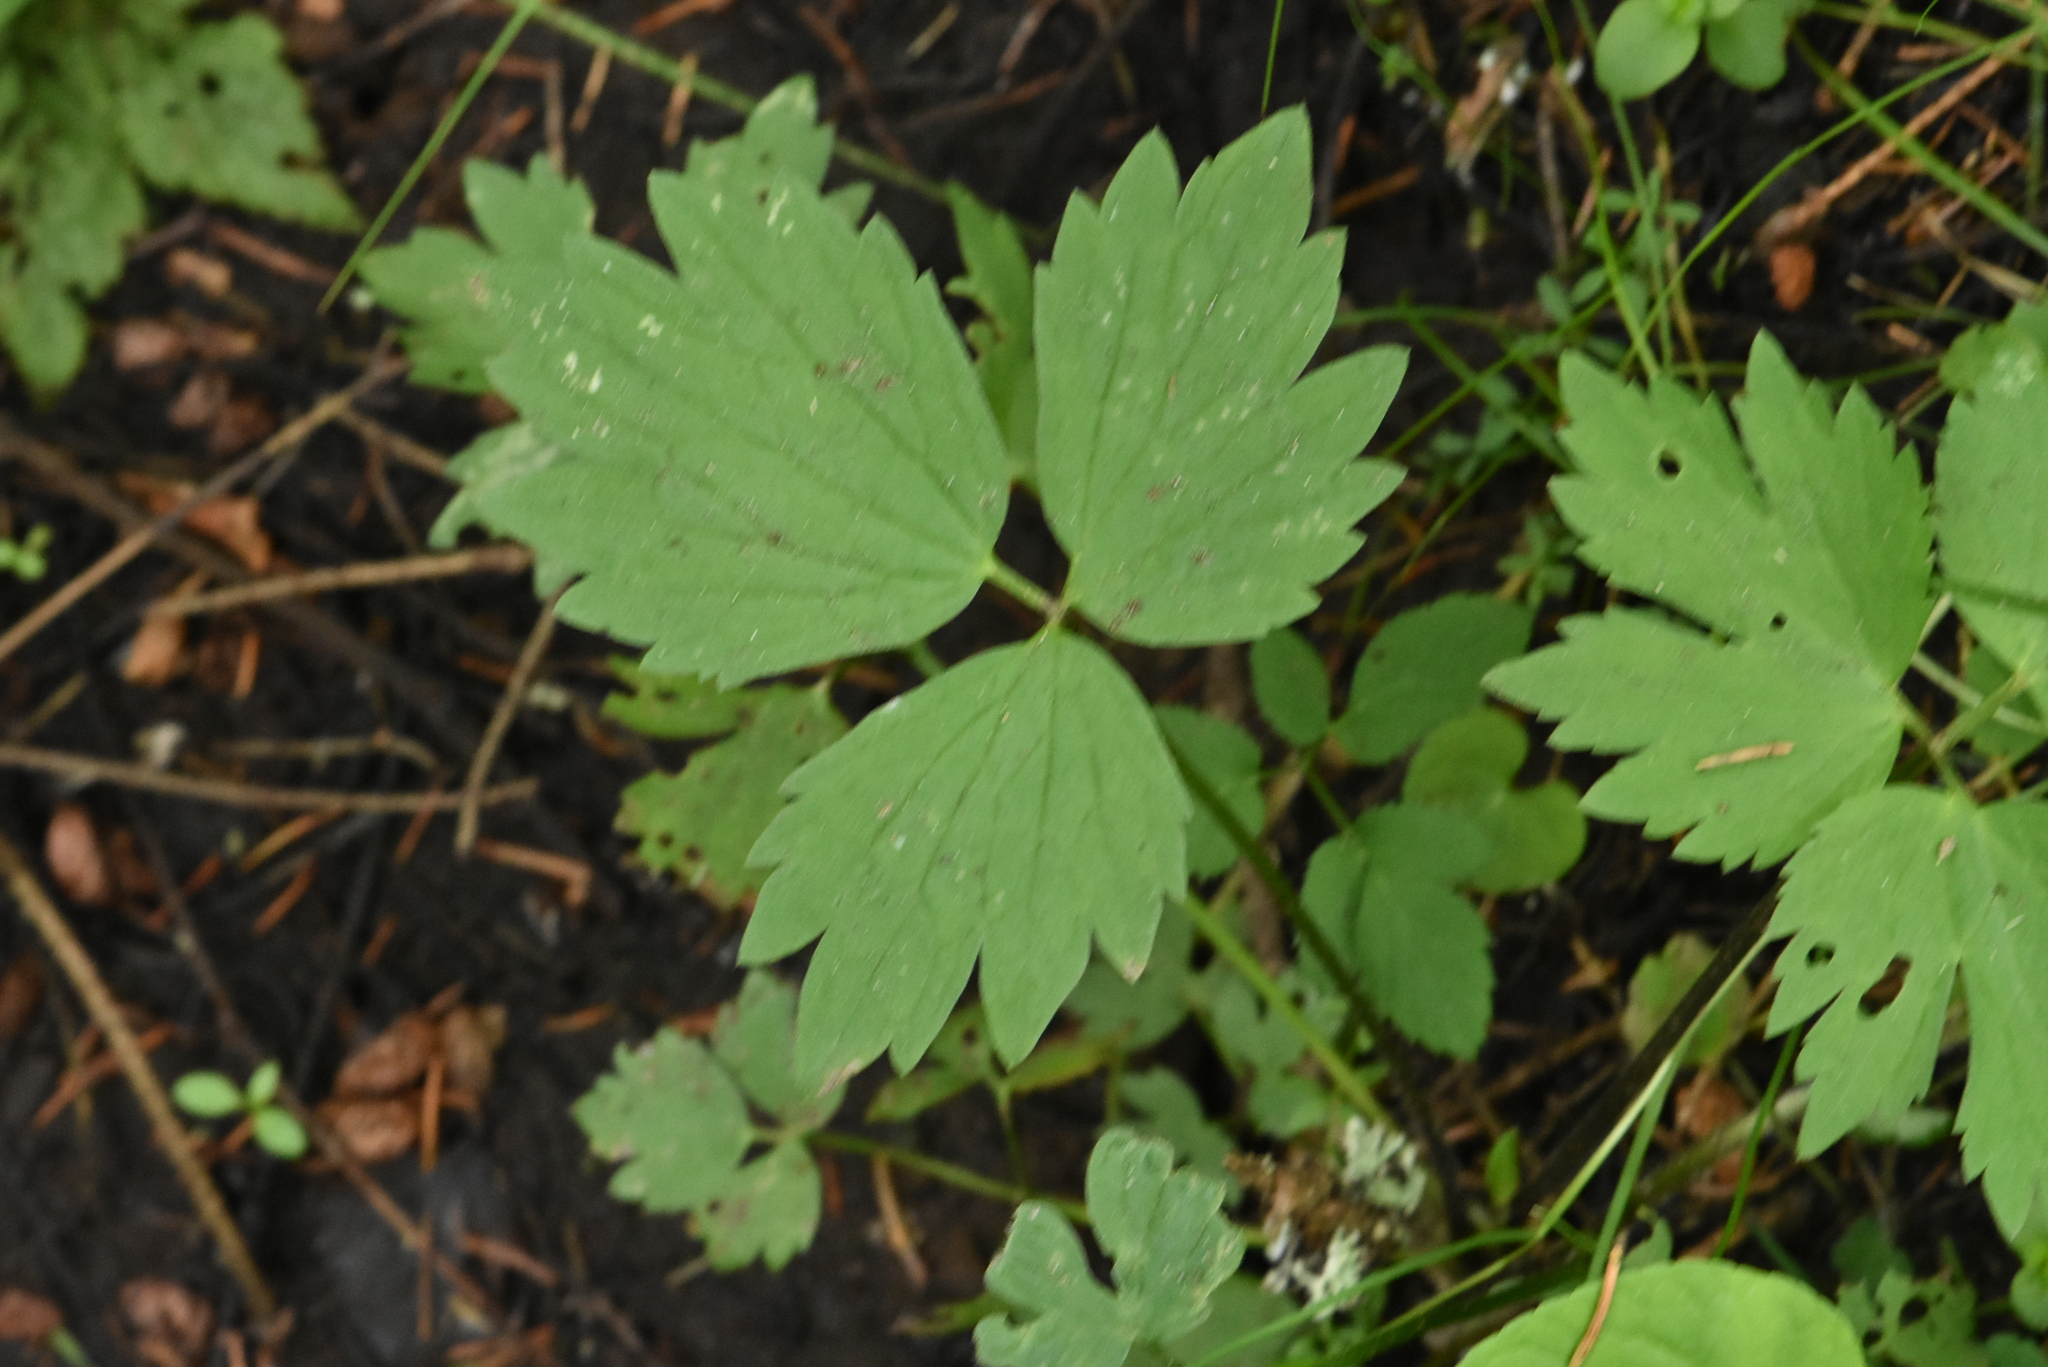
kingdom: Plantae
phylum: Tracheophyta
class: Magnoliopsida
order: Ranunculales
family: Ranunculaceae
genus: Ranunculus
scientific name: Ranunculus repens
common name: Creeping buttercup
